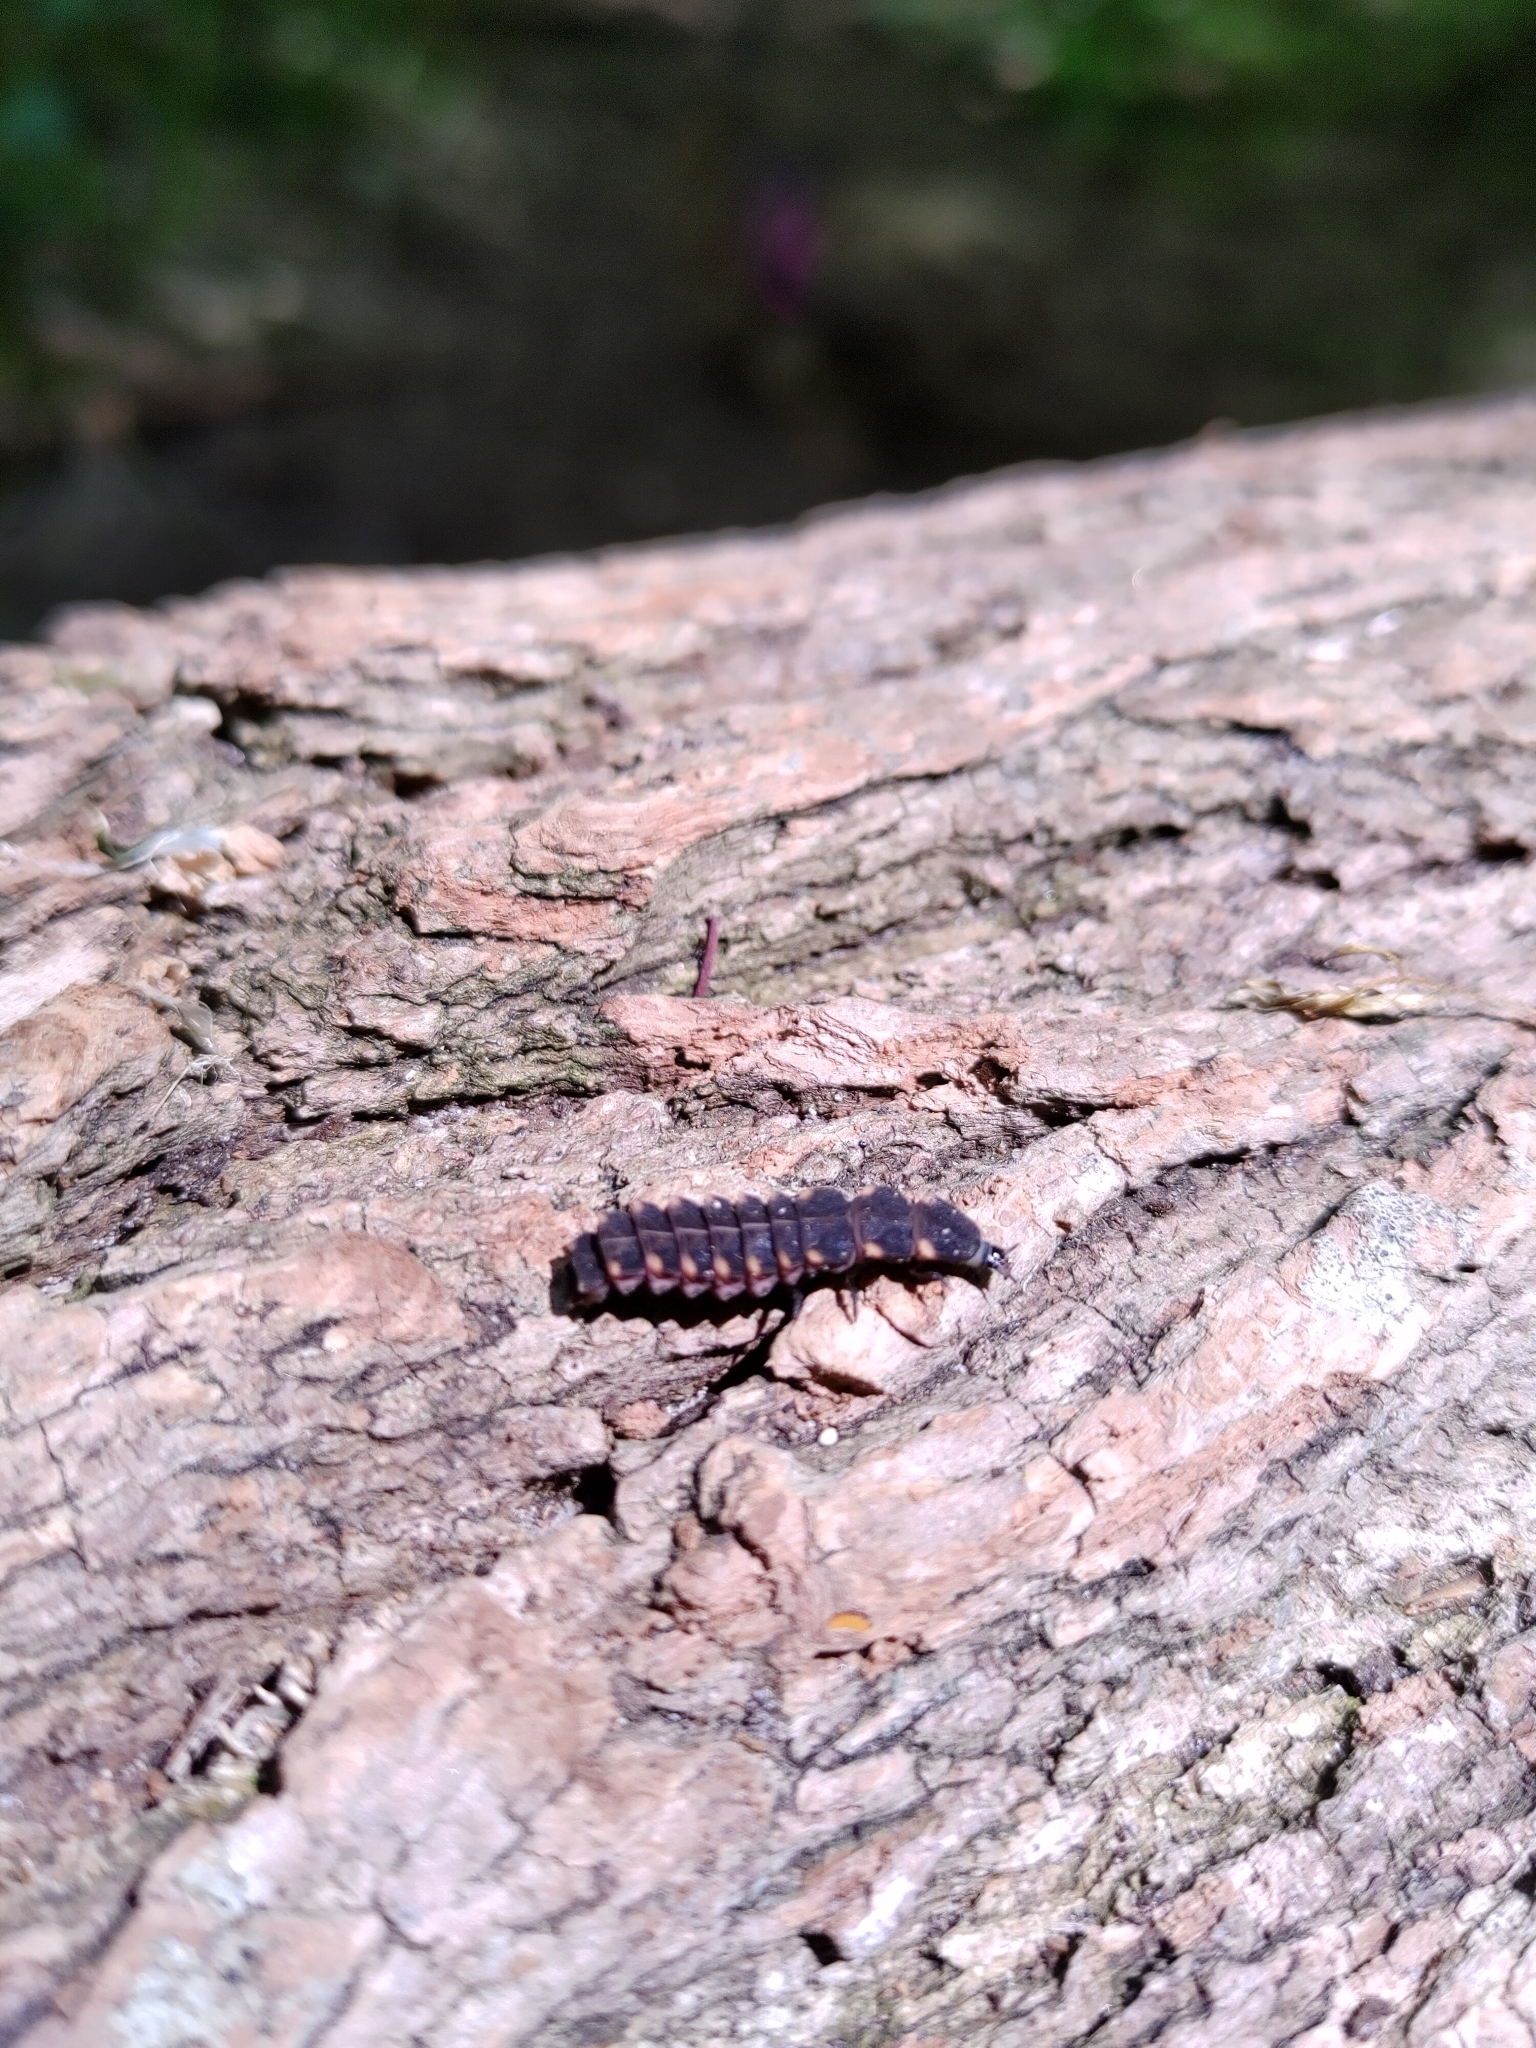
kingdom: Animalia
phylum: Arthropoda
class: Insecta
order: Coleoptera
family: Lampyridae
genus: Lampyris
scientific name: Lampyris noctiluca
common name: Glow-worm
